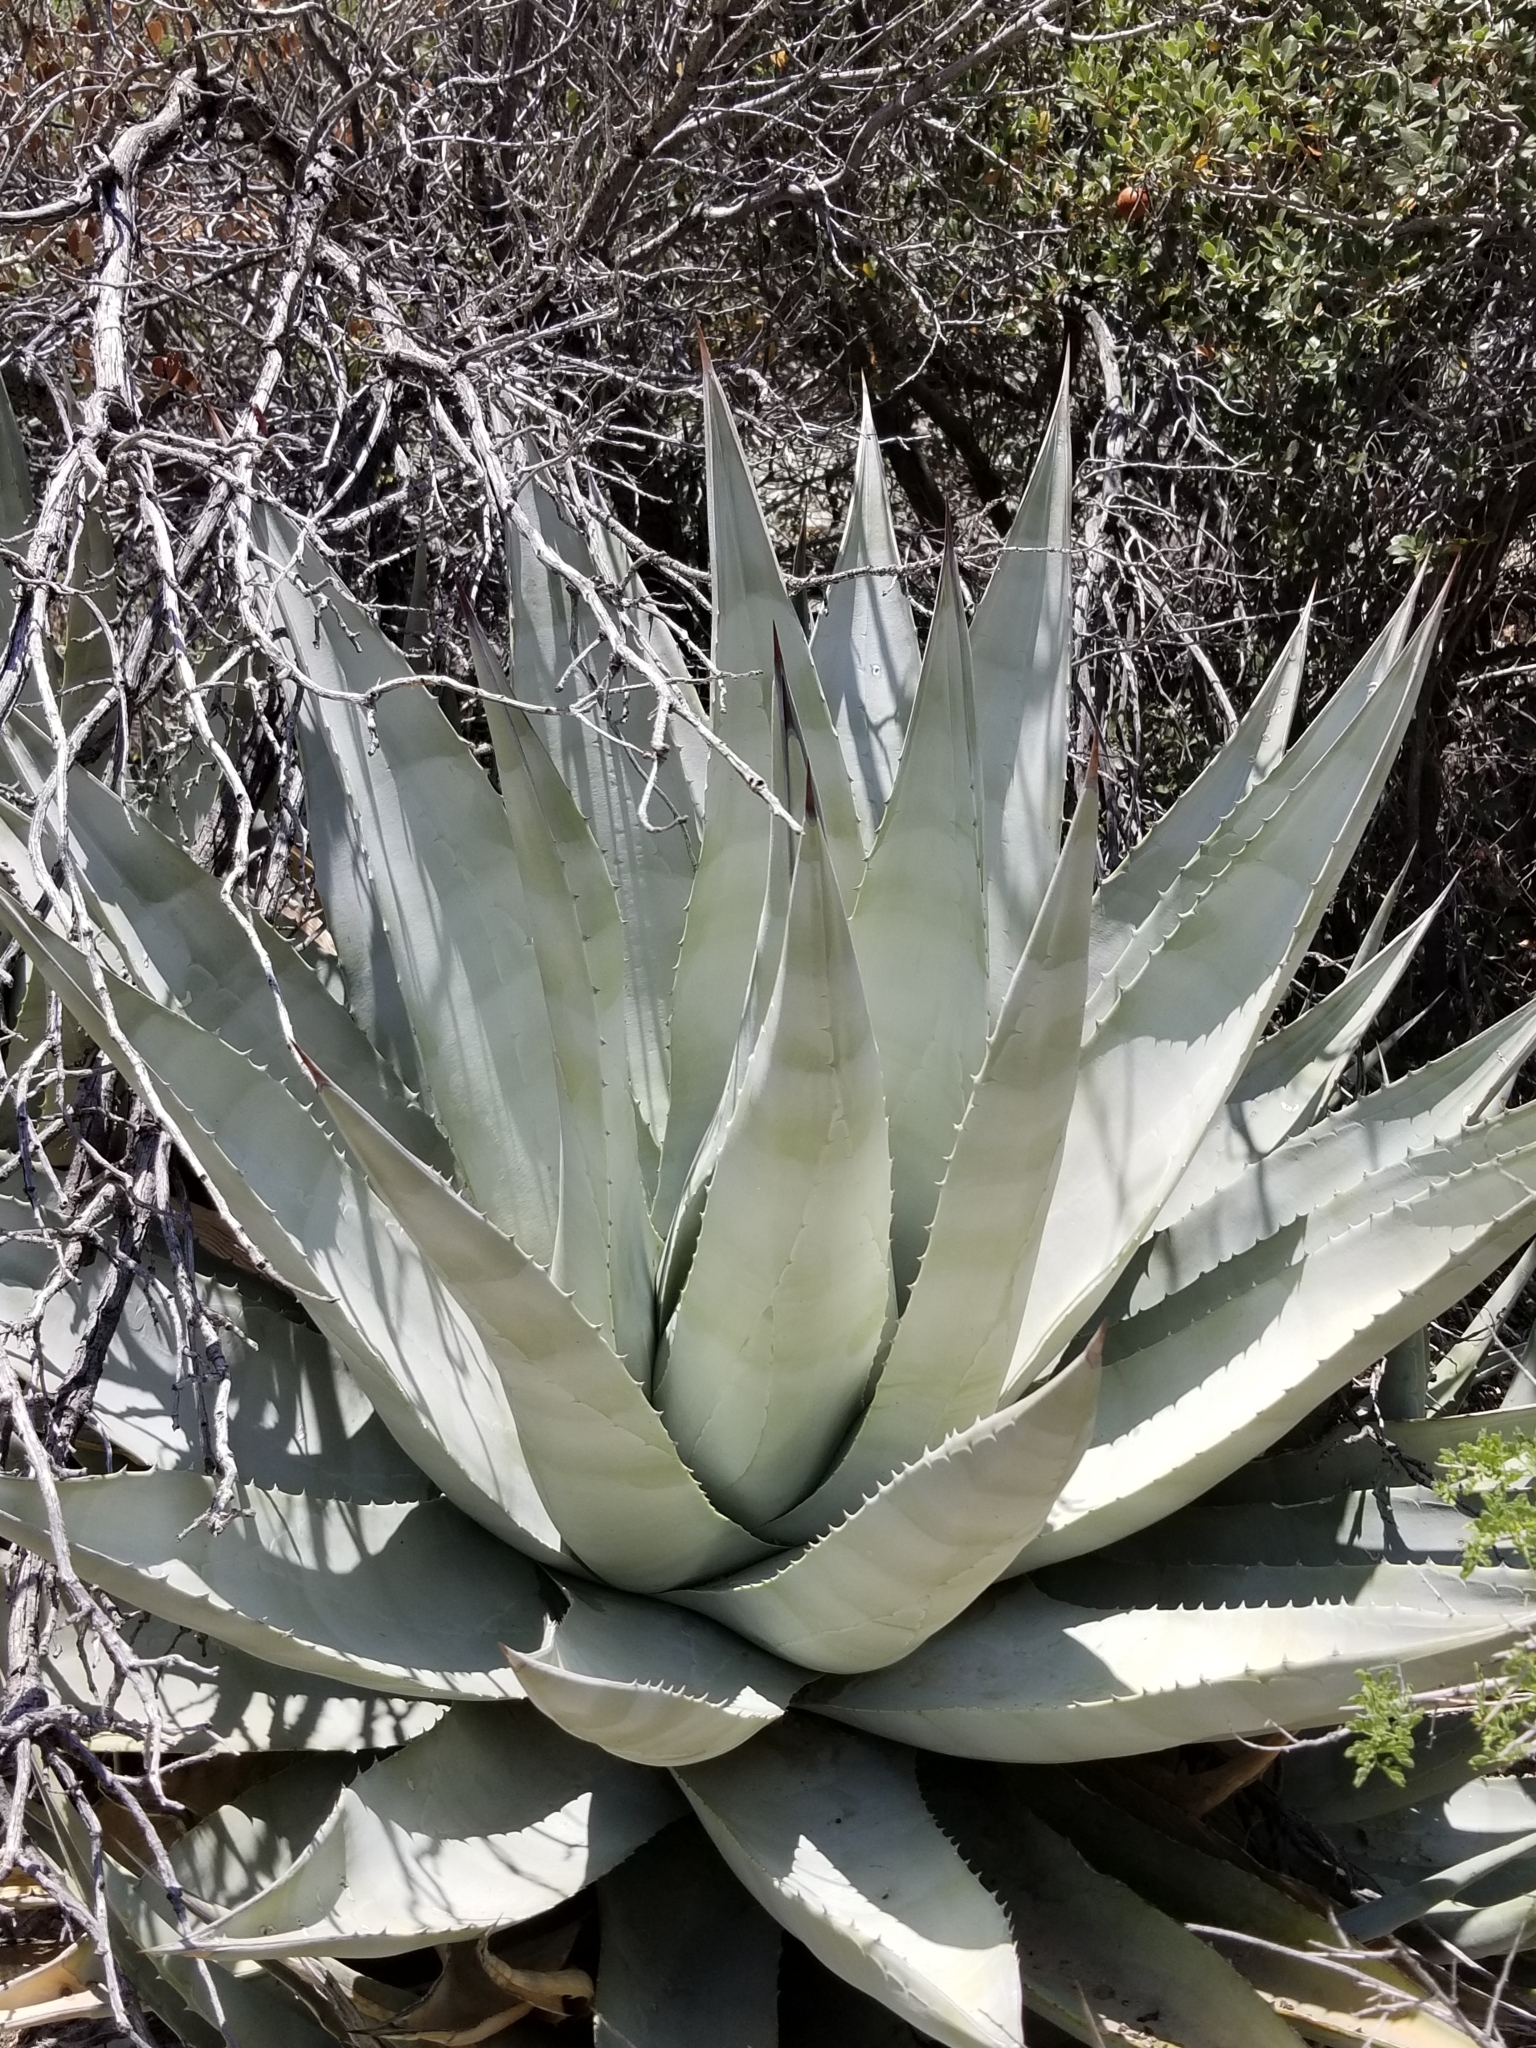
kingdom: Plantae
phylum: Tracheophyta
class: Liliopsida
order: Asparagales
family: Asparagaceae
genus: Agave
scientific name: Agave deserti
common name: Desert agave
